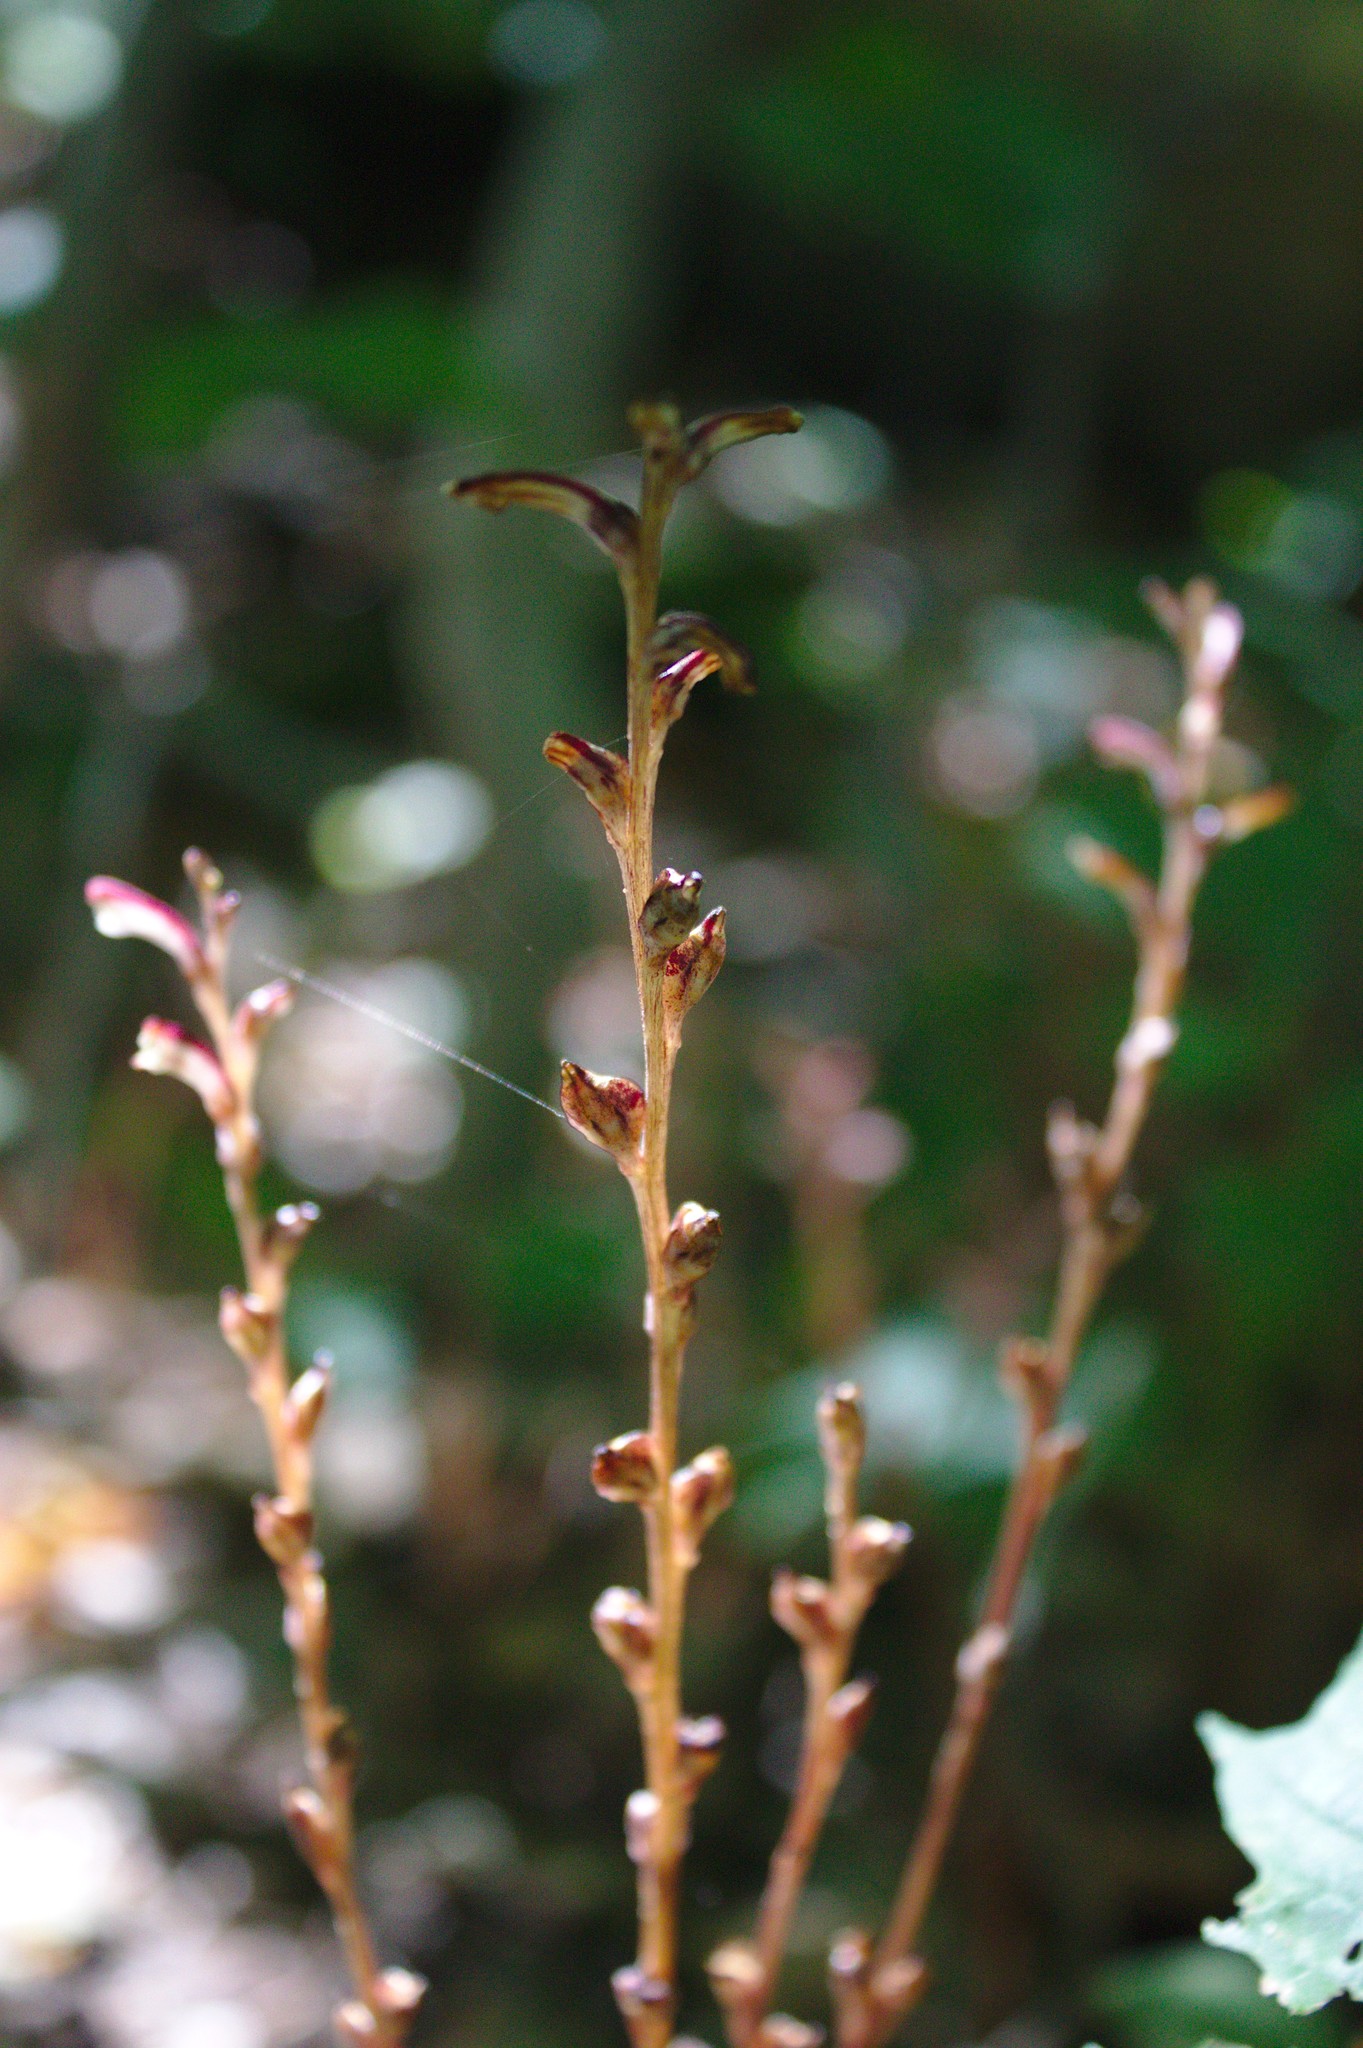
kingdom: Plantae
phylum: Tracheophyta
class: Magnoliopsida
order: Lamiales
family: Orobanchaceae
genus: Epifagus
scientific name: Epifagus virginiana
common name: Beechdrops
